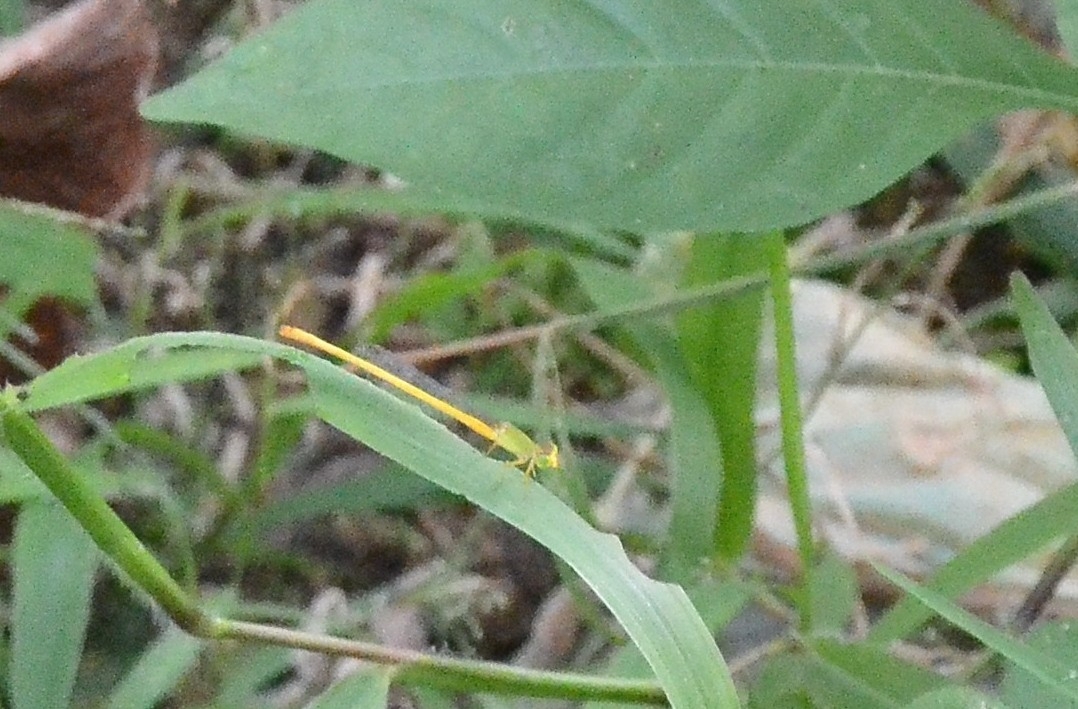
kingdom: Animalia
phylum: Arthropoda
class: Insecta
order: Odonata
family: Coenagrionidae
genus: Ceriagrion
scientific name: Ceriagrion coromandelianum
